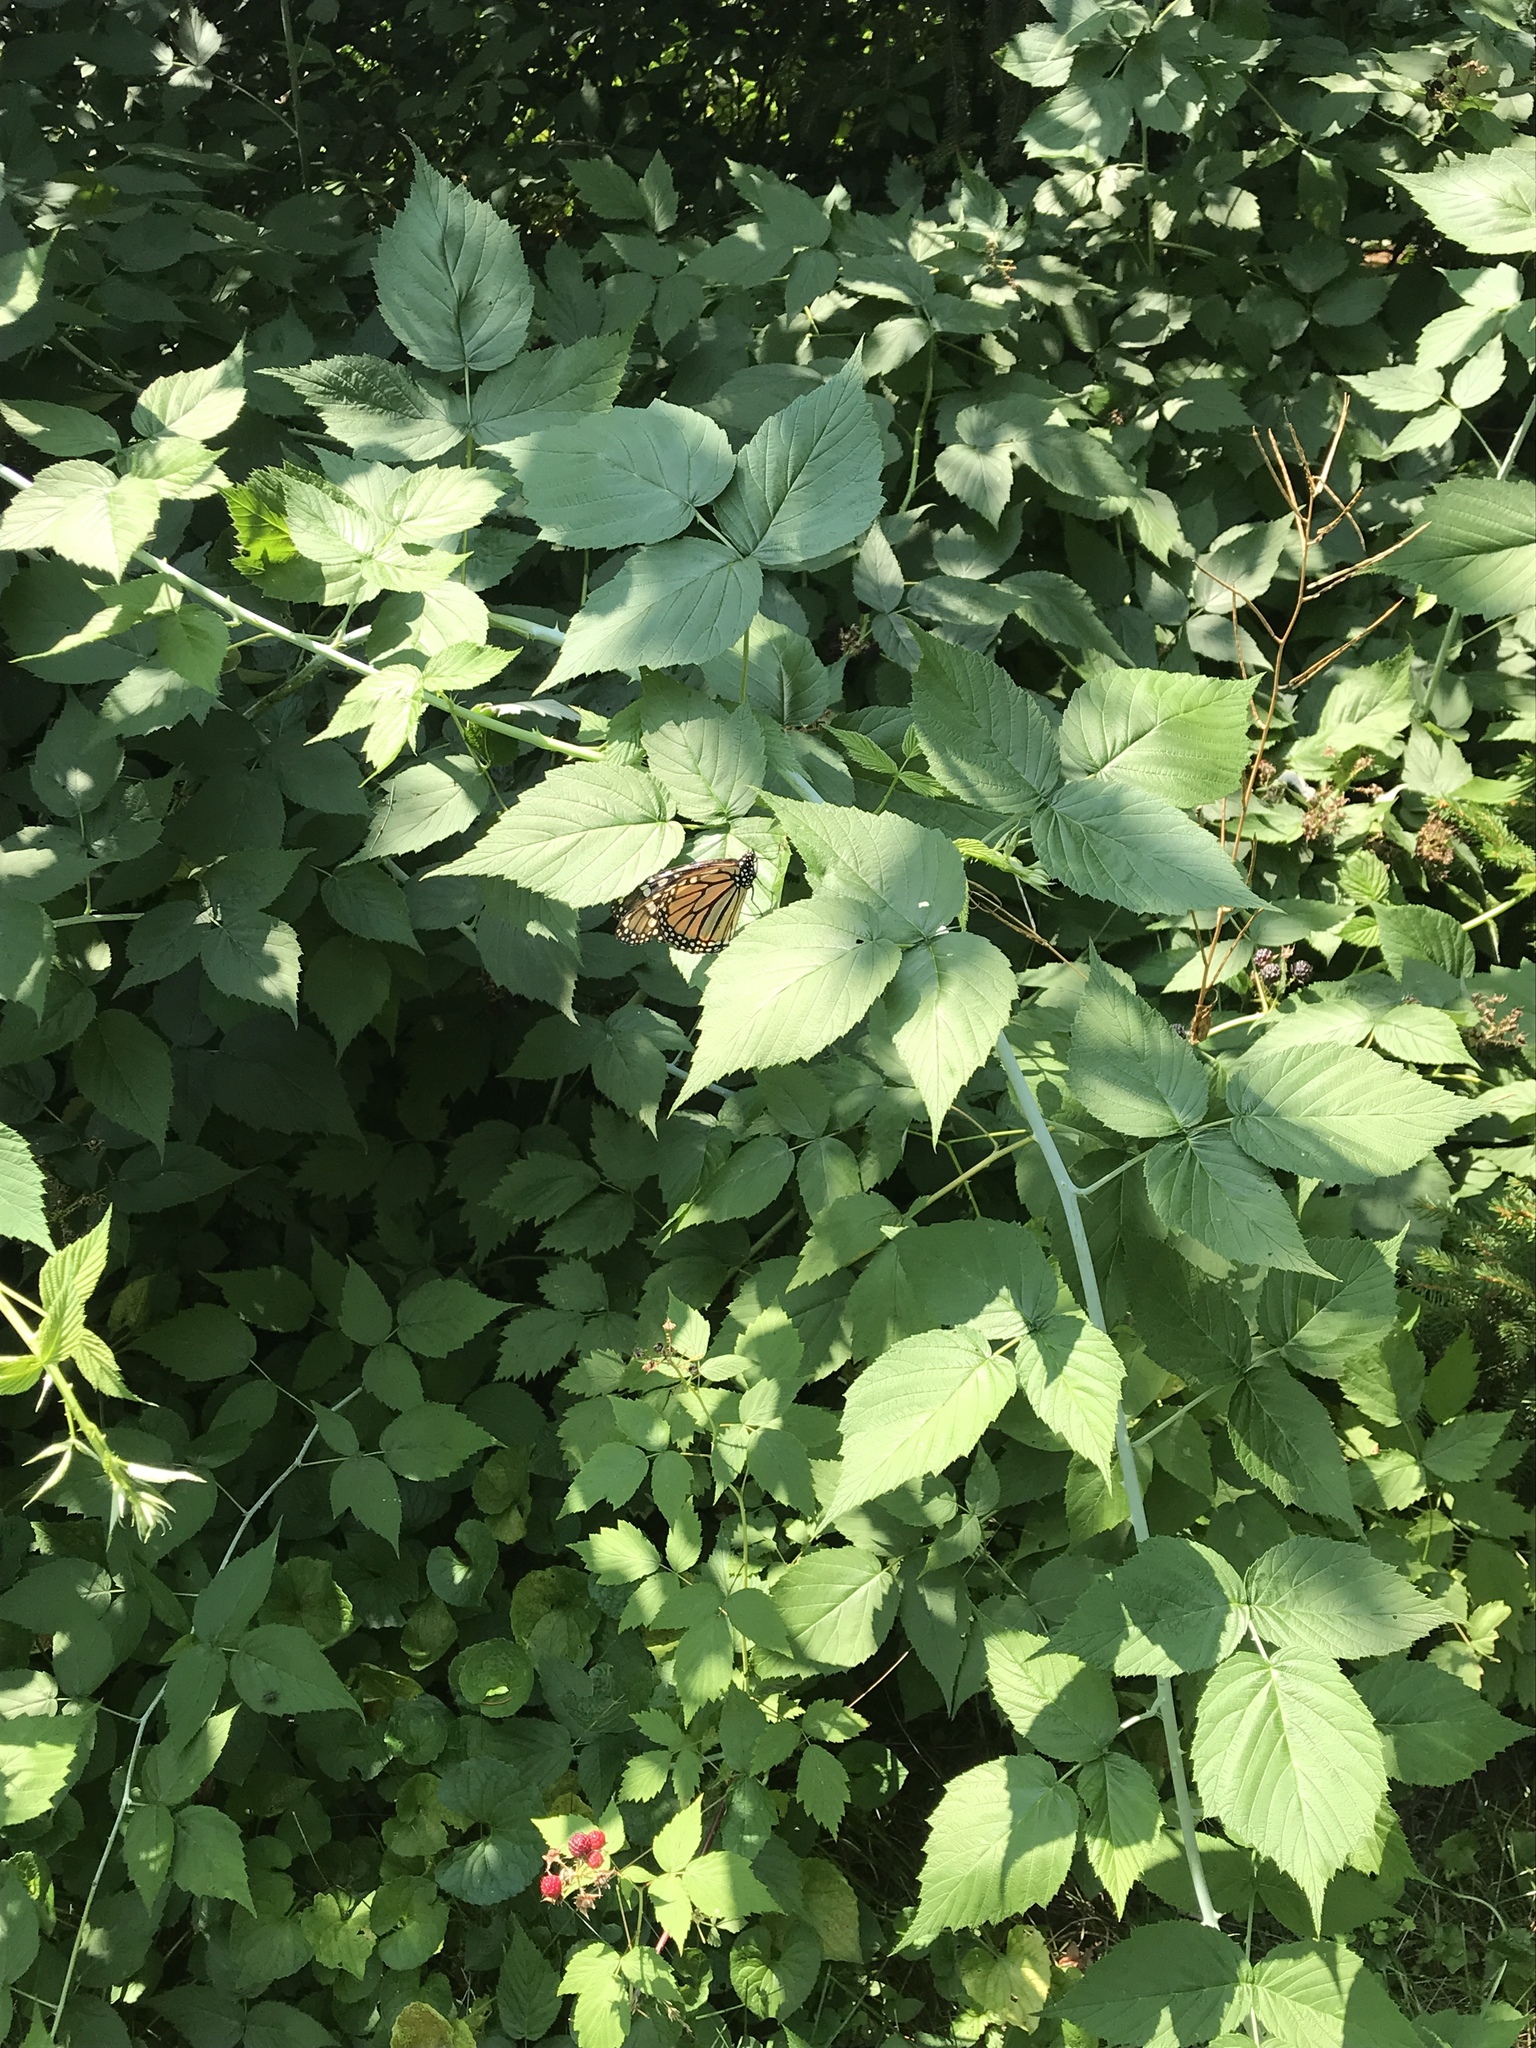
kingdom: Animalia
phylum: Arthropoda
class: Insecta
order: Lepidoptera
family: Nymphalidae
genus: Danaus
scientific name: Danaus plexippus
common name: Monarch
